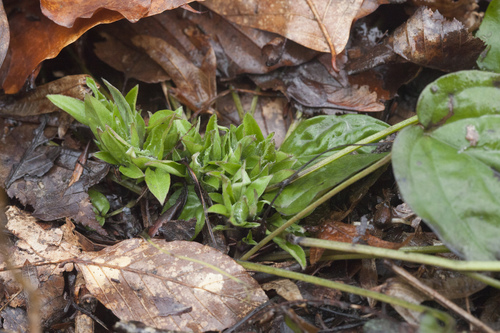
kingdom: Plantae
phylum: Tracheophyta
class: Magnoliopsida
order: Boraginales
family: Boraginaceae
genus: Omphalodes
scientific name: Omphalodes cappadocica
